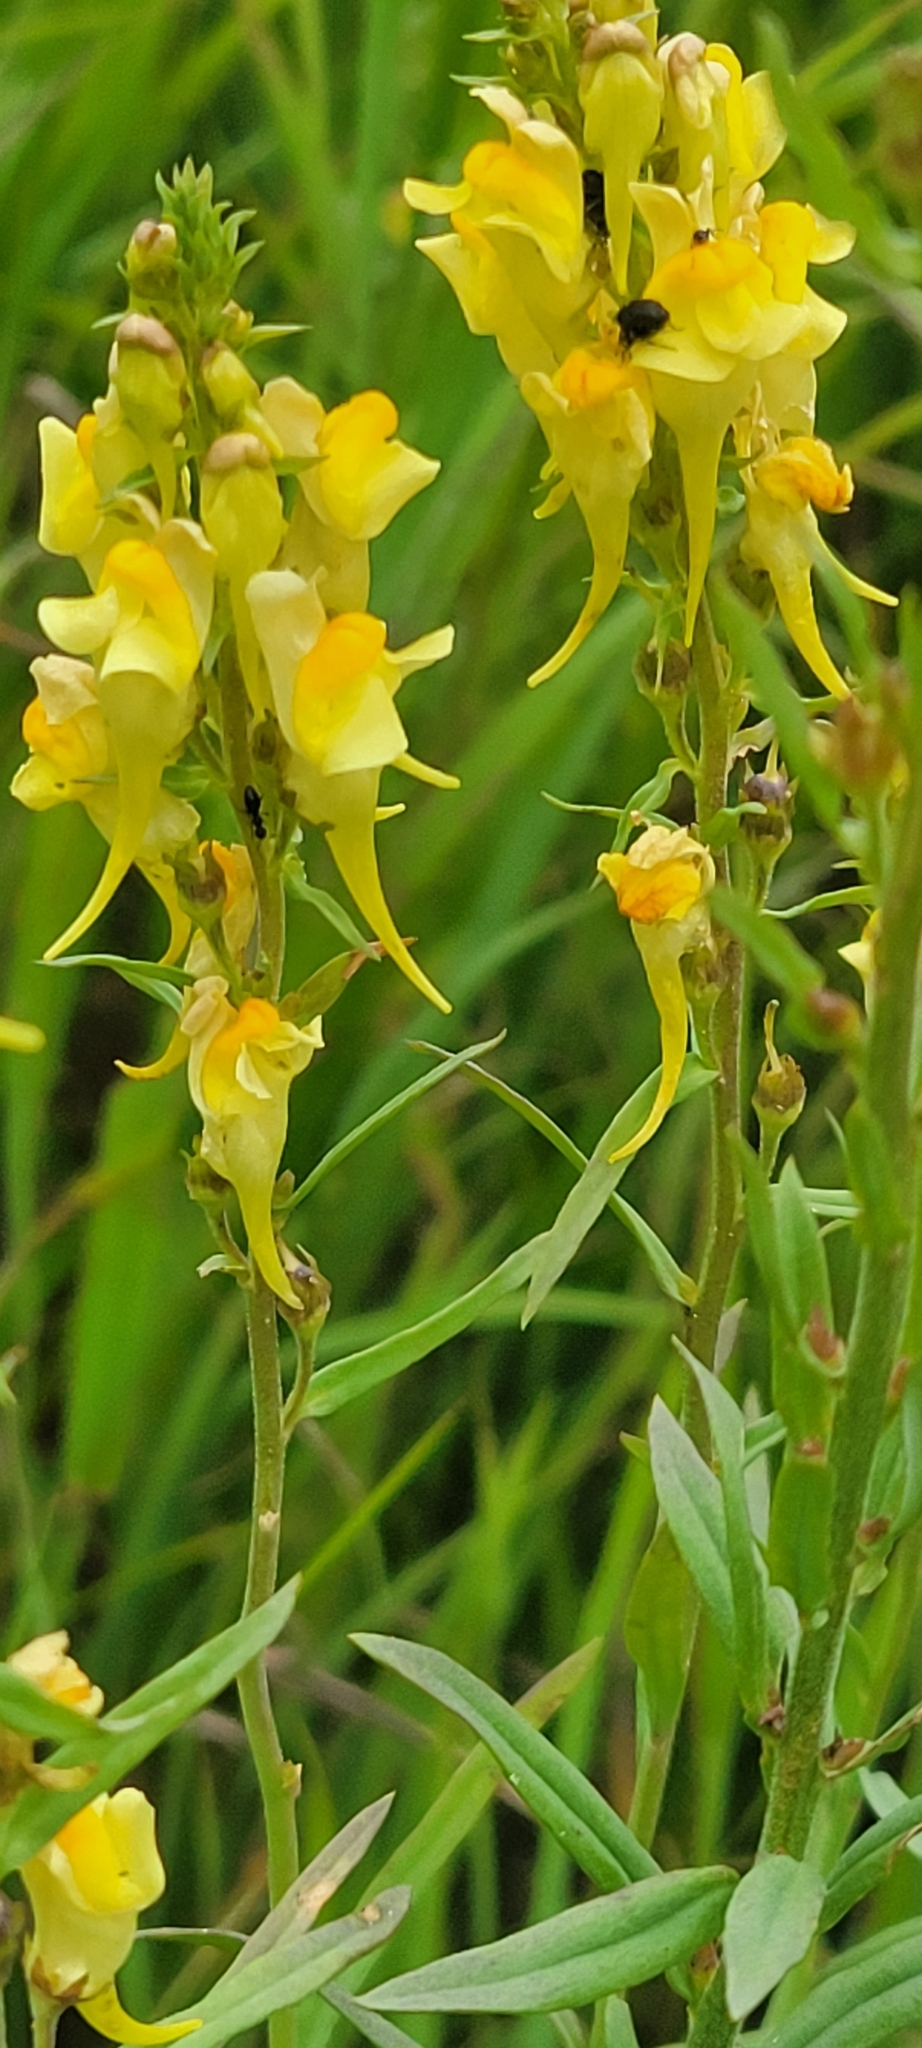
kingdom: Plantae
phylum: Tracheophyta
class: Magnoliopsida
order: Lamiales
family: Plantaginaceae
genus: Linaria
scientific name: Linaria vulgaris
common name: Butter and eggs
